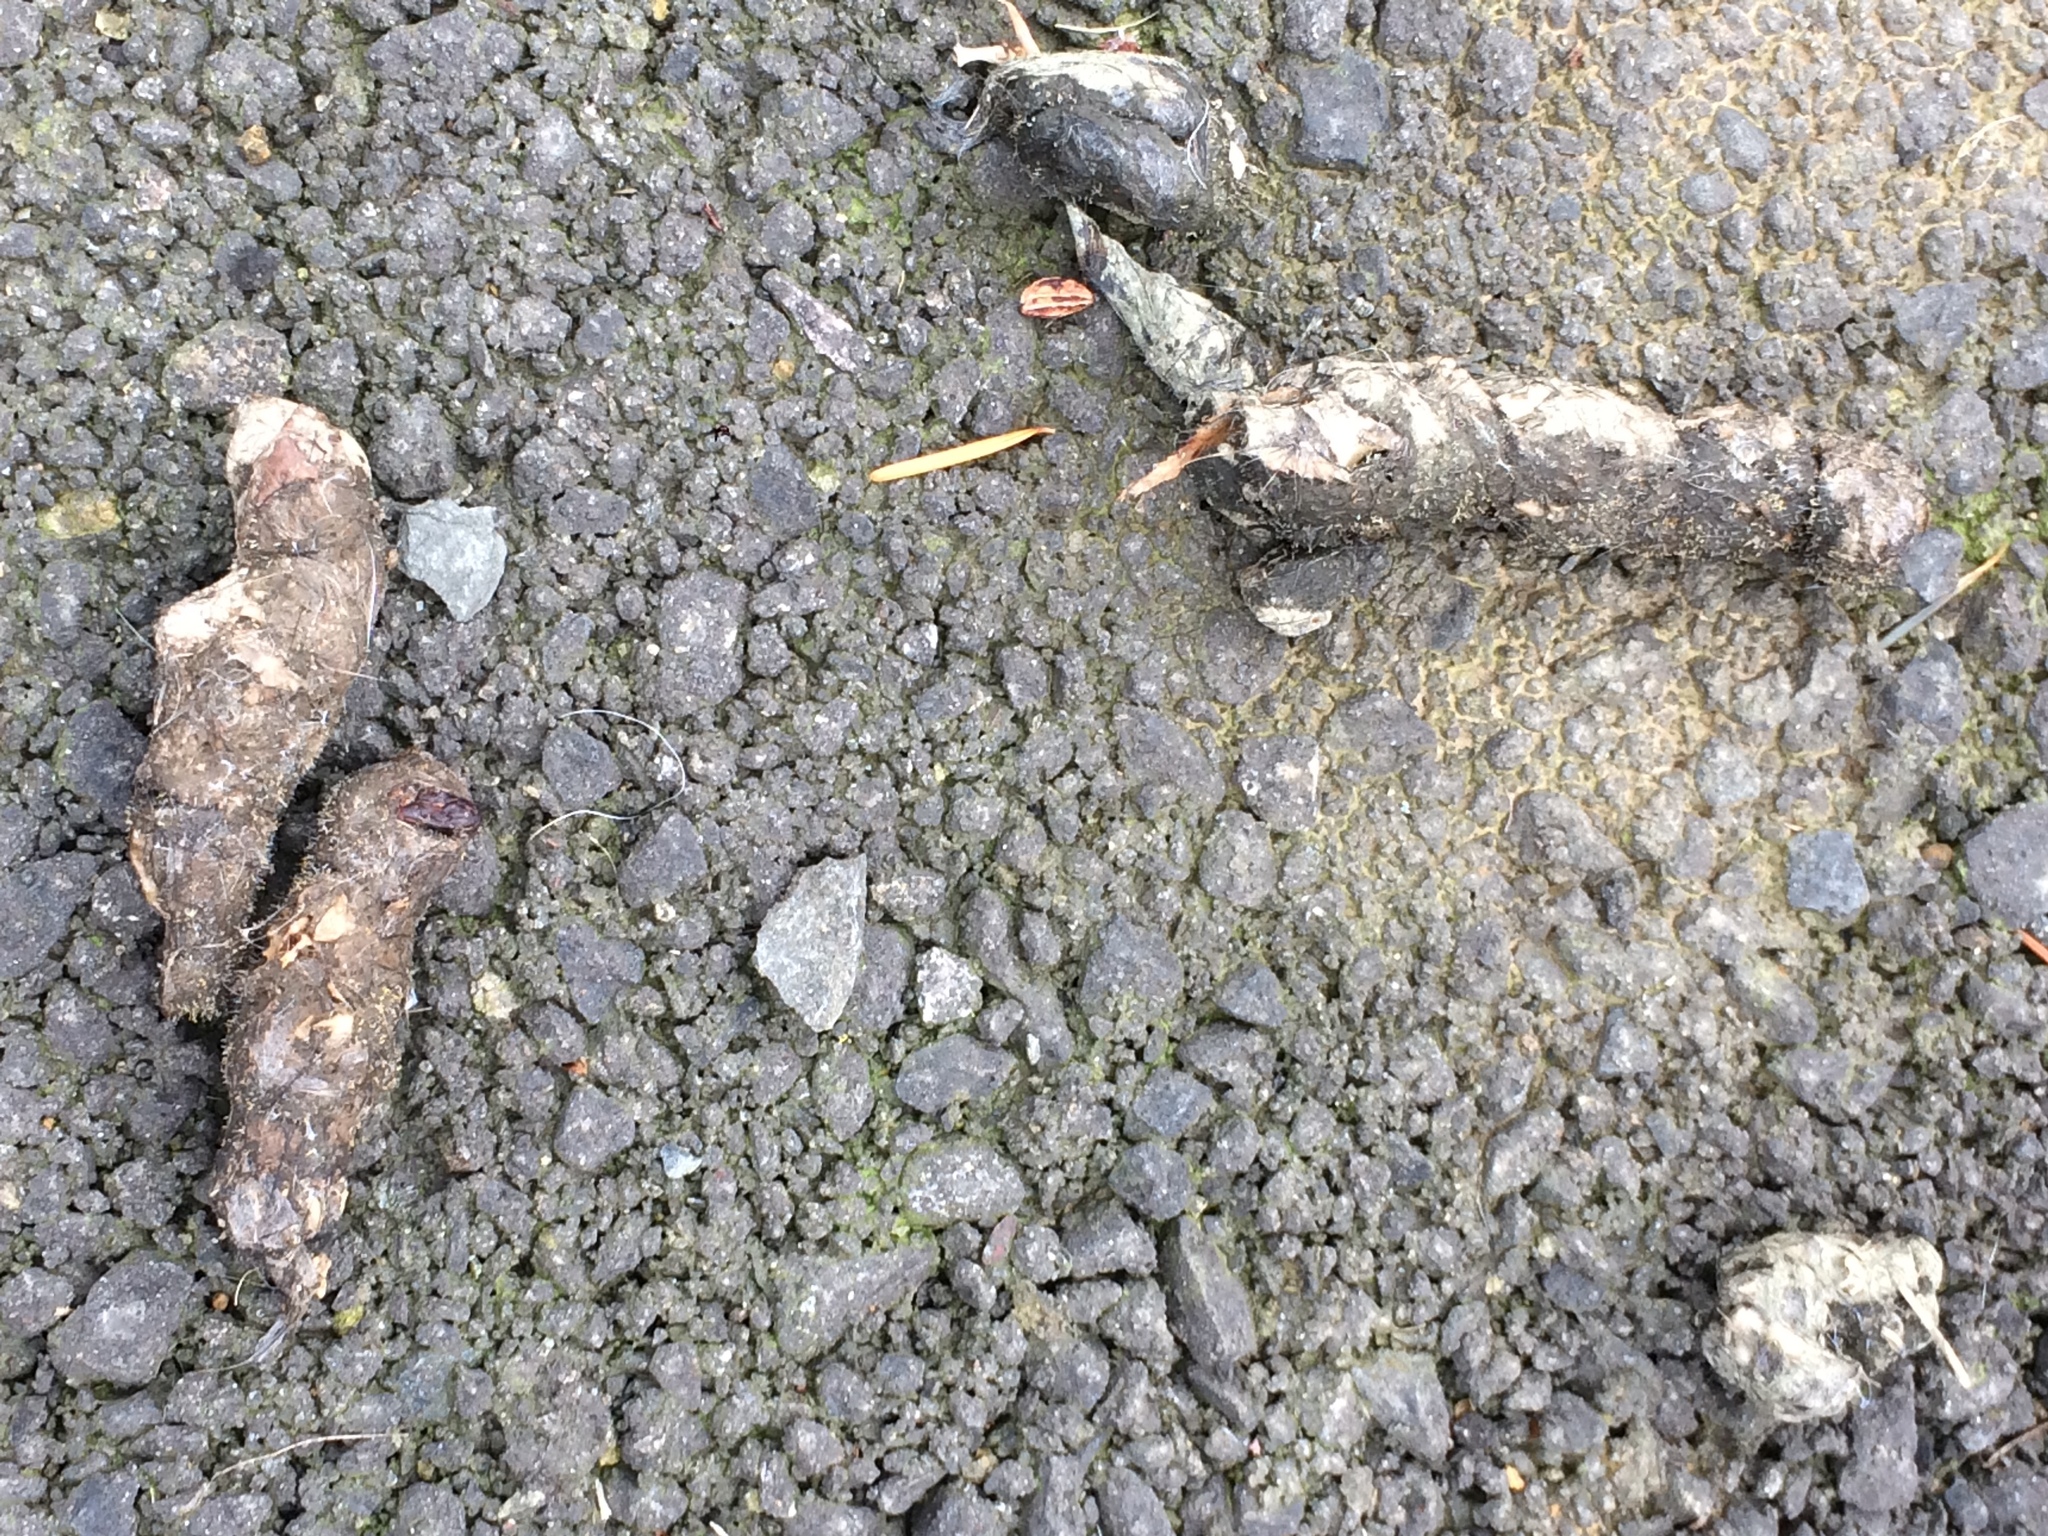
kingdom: Animalia
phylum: Chordata
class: Mammalia
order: Carnivora
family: Canidae
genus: Canis
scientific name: Canis latrans
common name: Coyote
